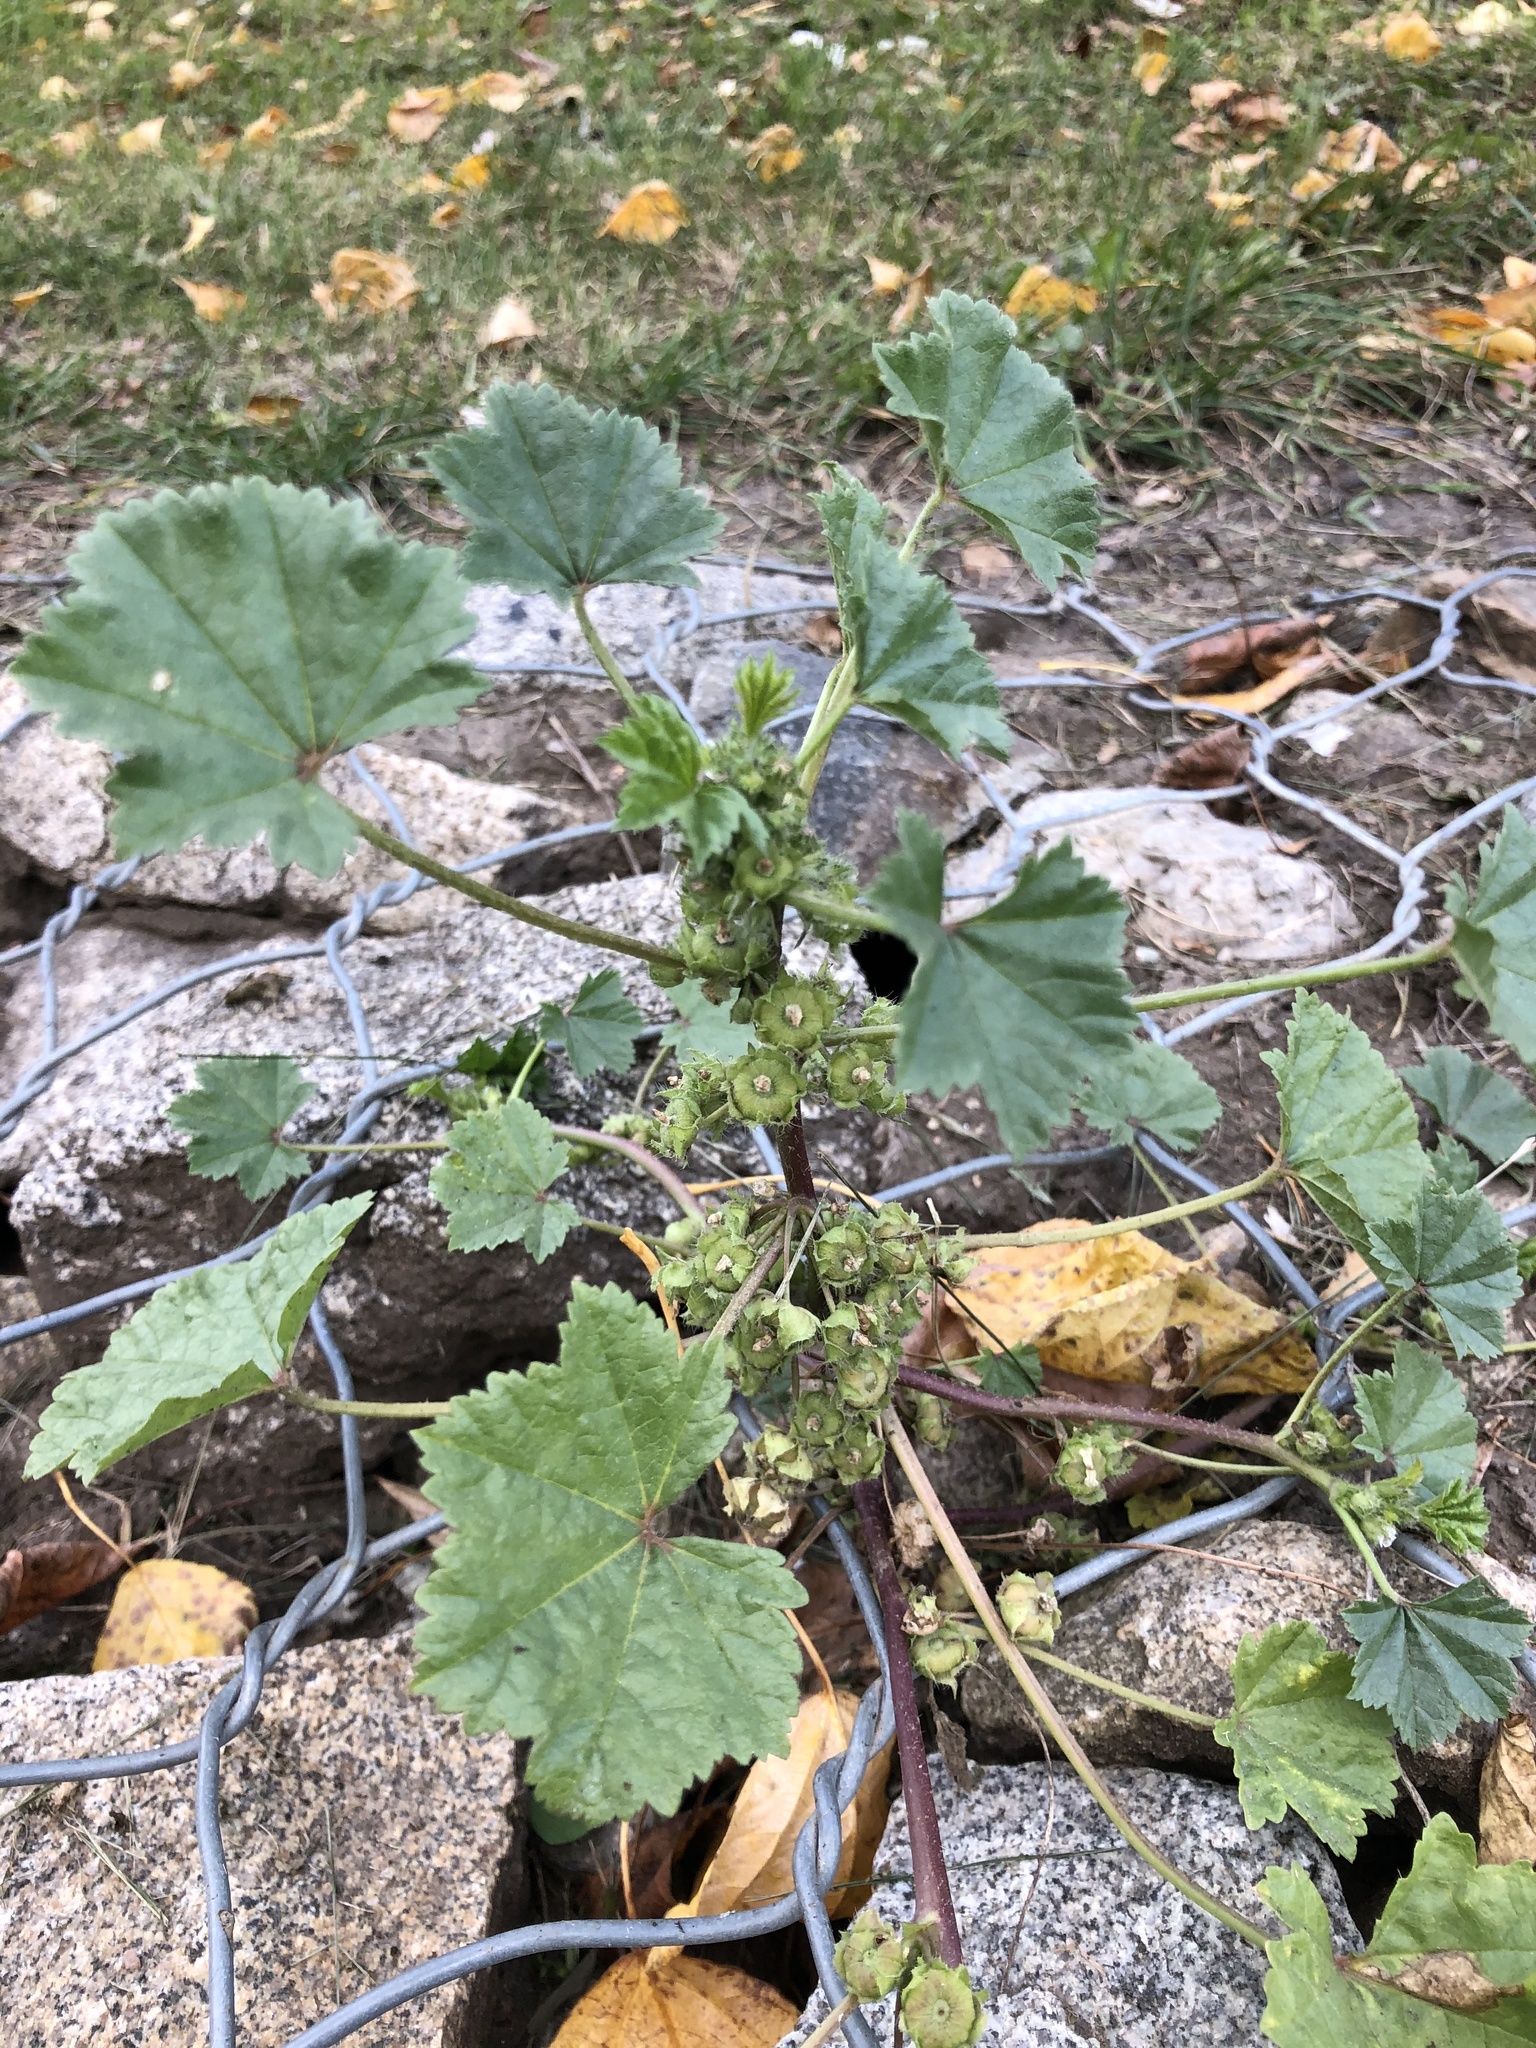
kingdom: Plantae
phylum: Tracheophyta
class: Magnoliopsida
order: Malvales
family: Malvaceae
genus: Malva
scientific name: Malva pusilla
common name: Small mallow
